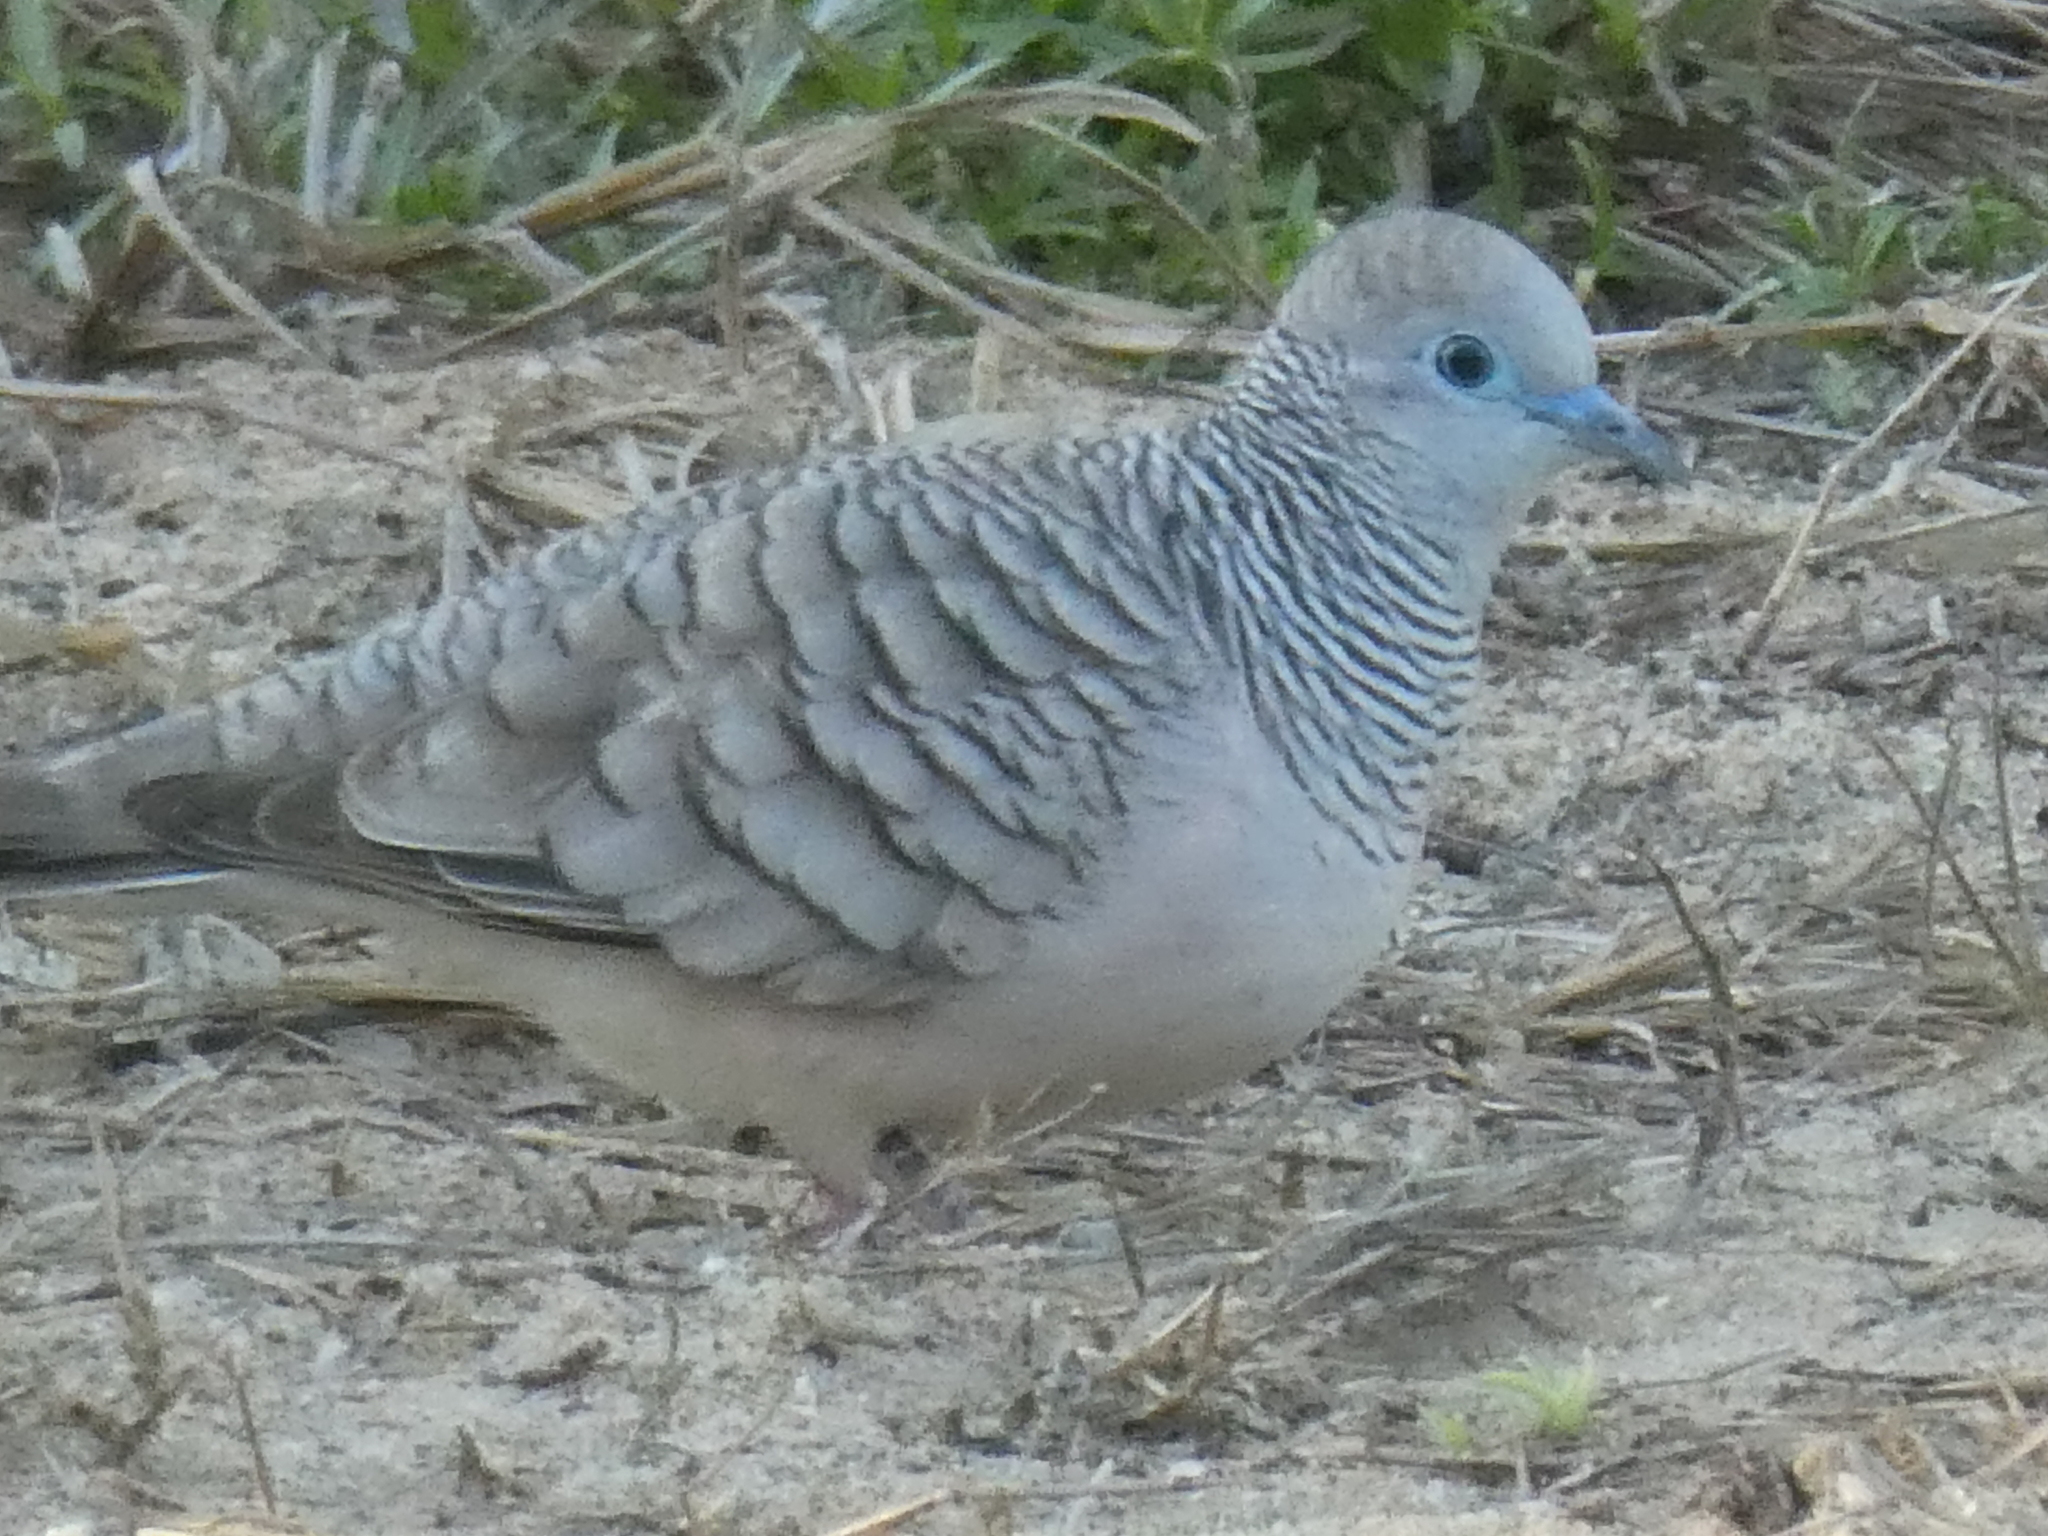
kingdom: Animalia
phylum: Chordata
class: Aves
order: Columbiformes
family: Columbidae
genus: Geopelia
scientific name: Geopelia placida
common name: Peaceful dove
